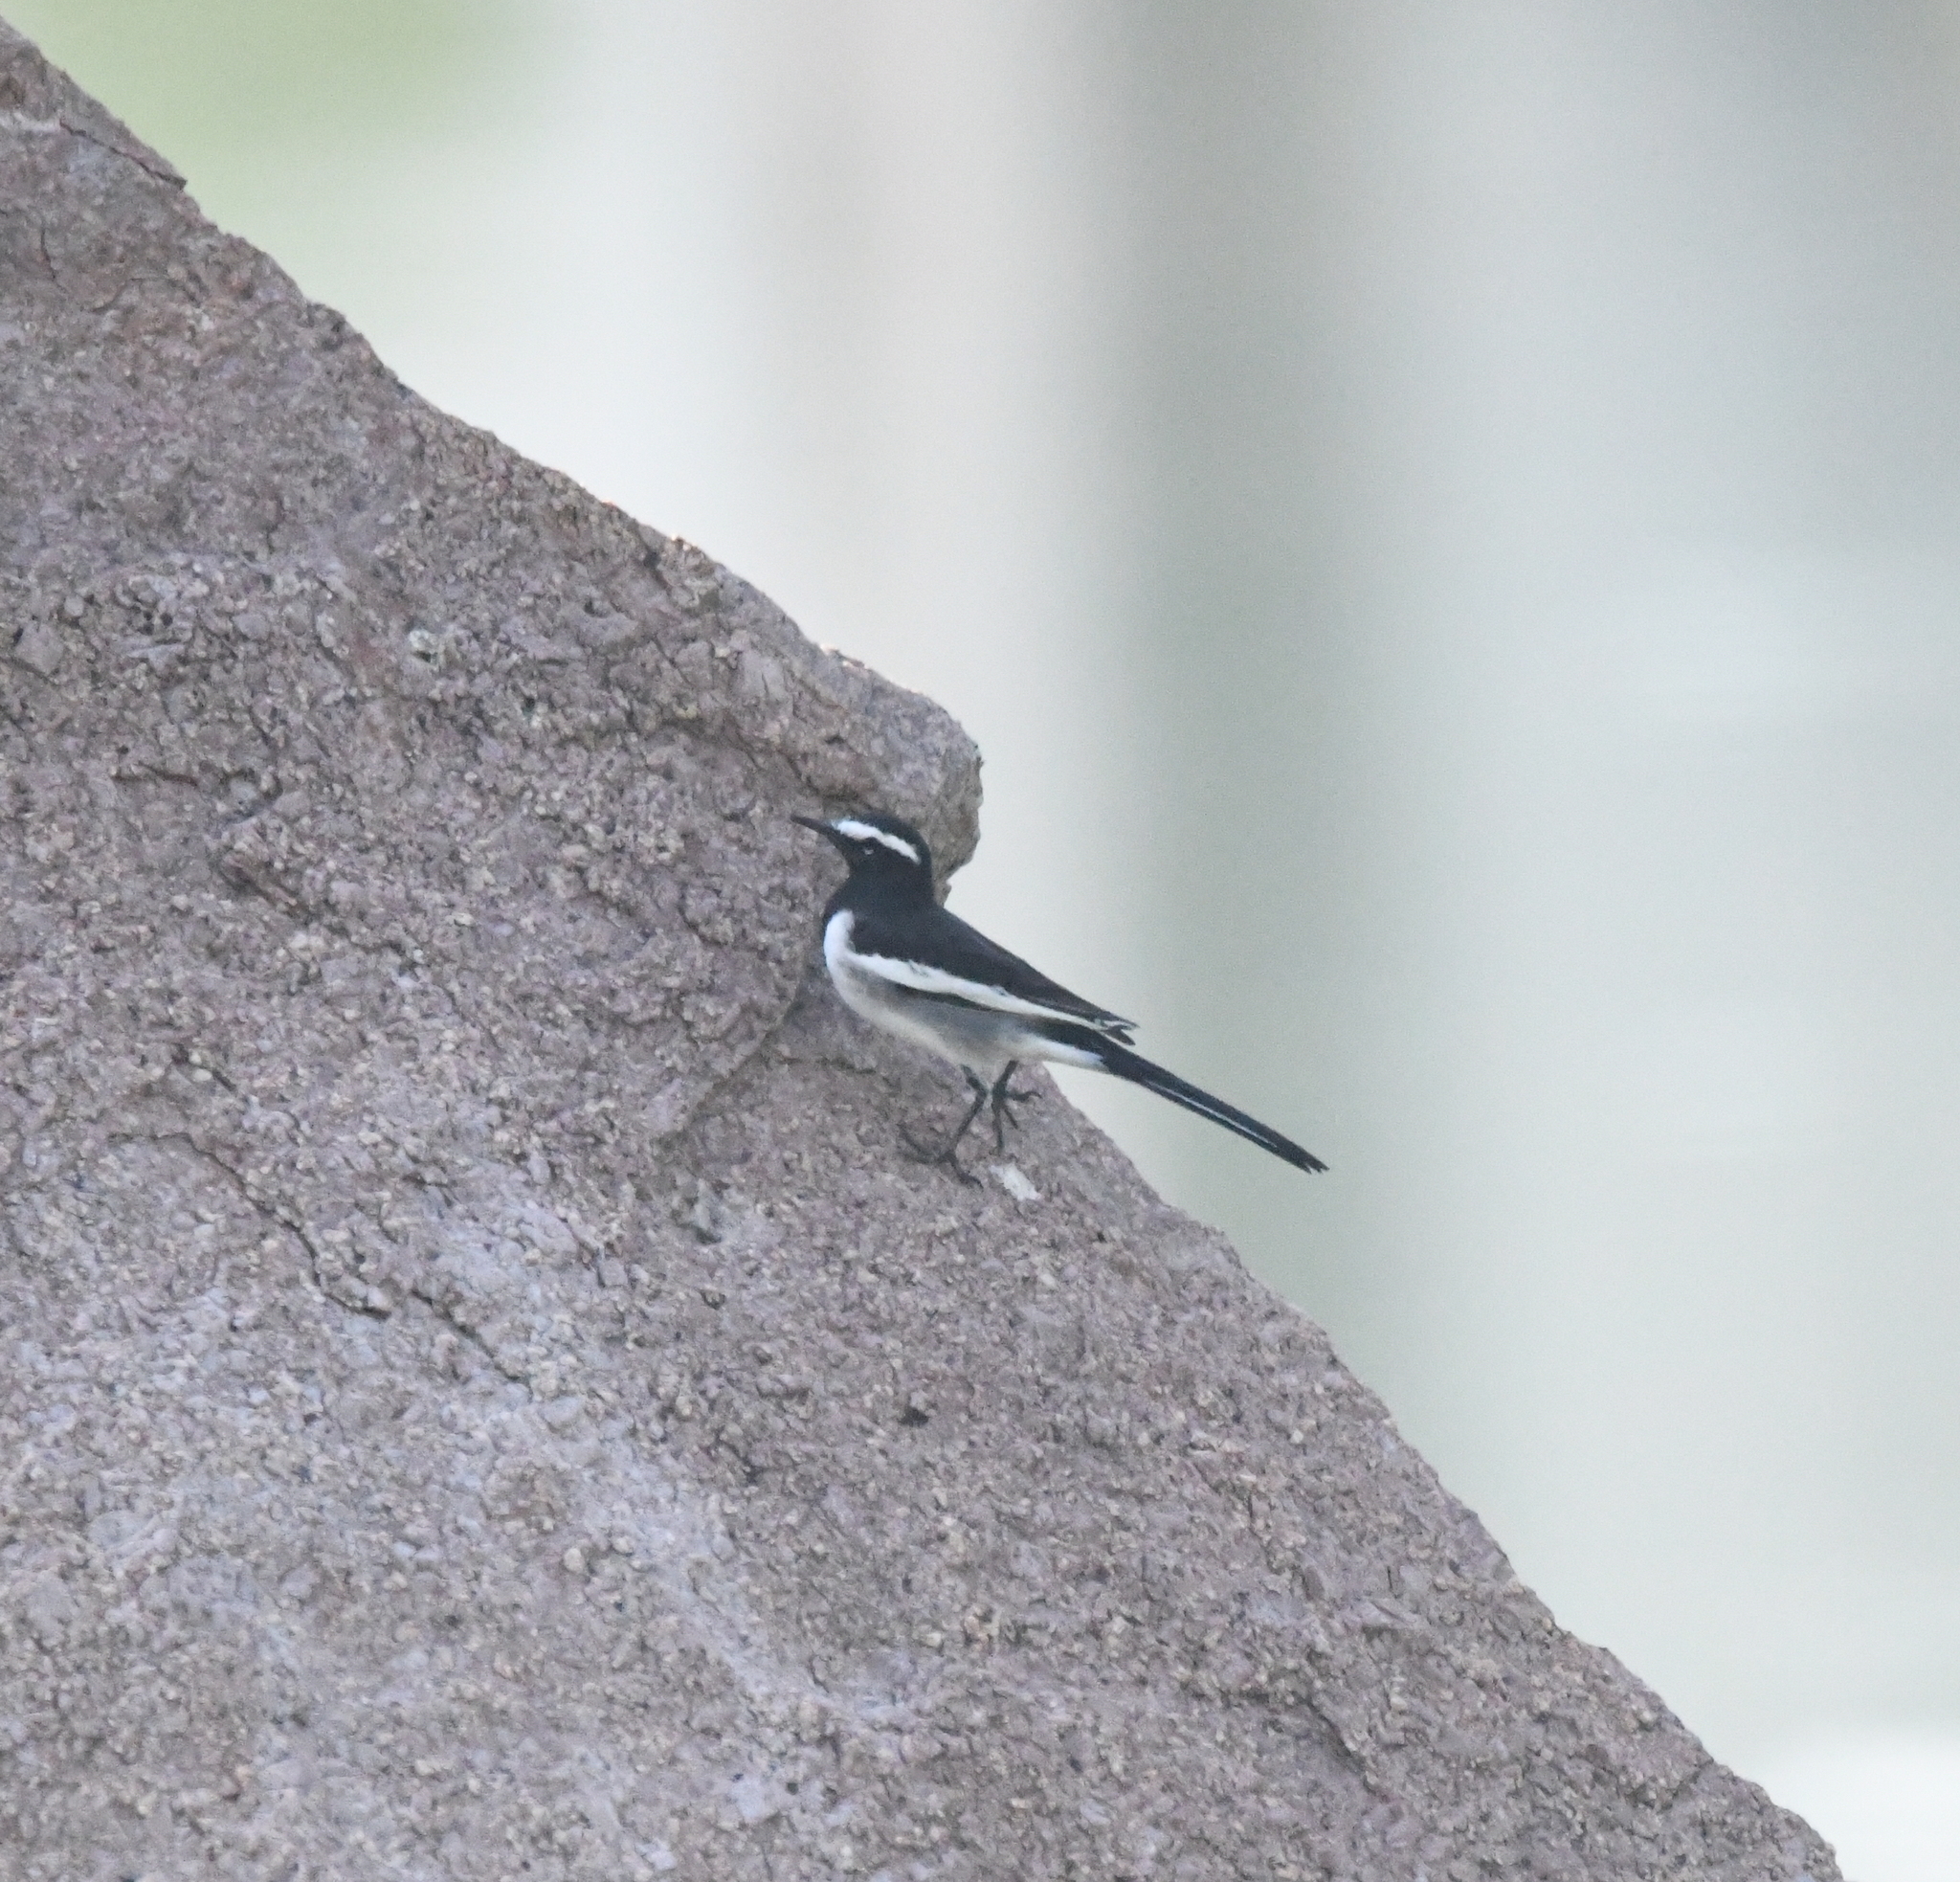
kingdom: Animalia
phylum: Chordata
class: Aves
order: Passeriformes
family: Motacillidae
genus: Motacilla
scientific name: Motacilla maderaspatensis
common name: White-browed wagtail
